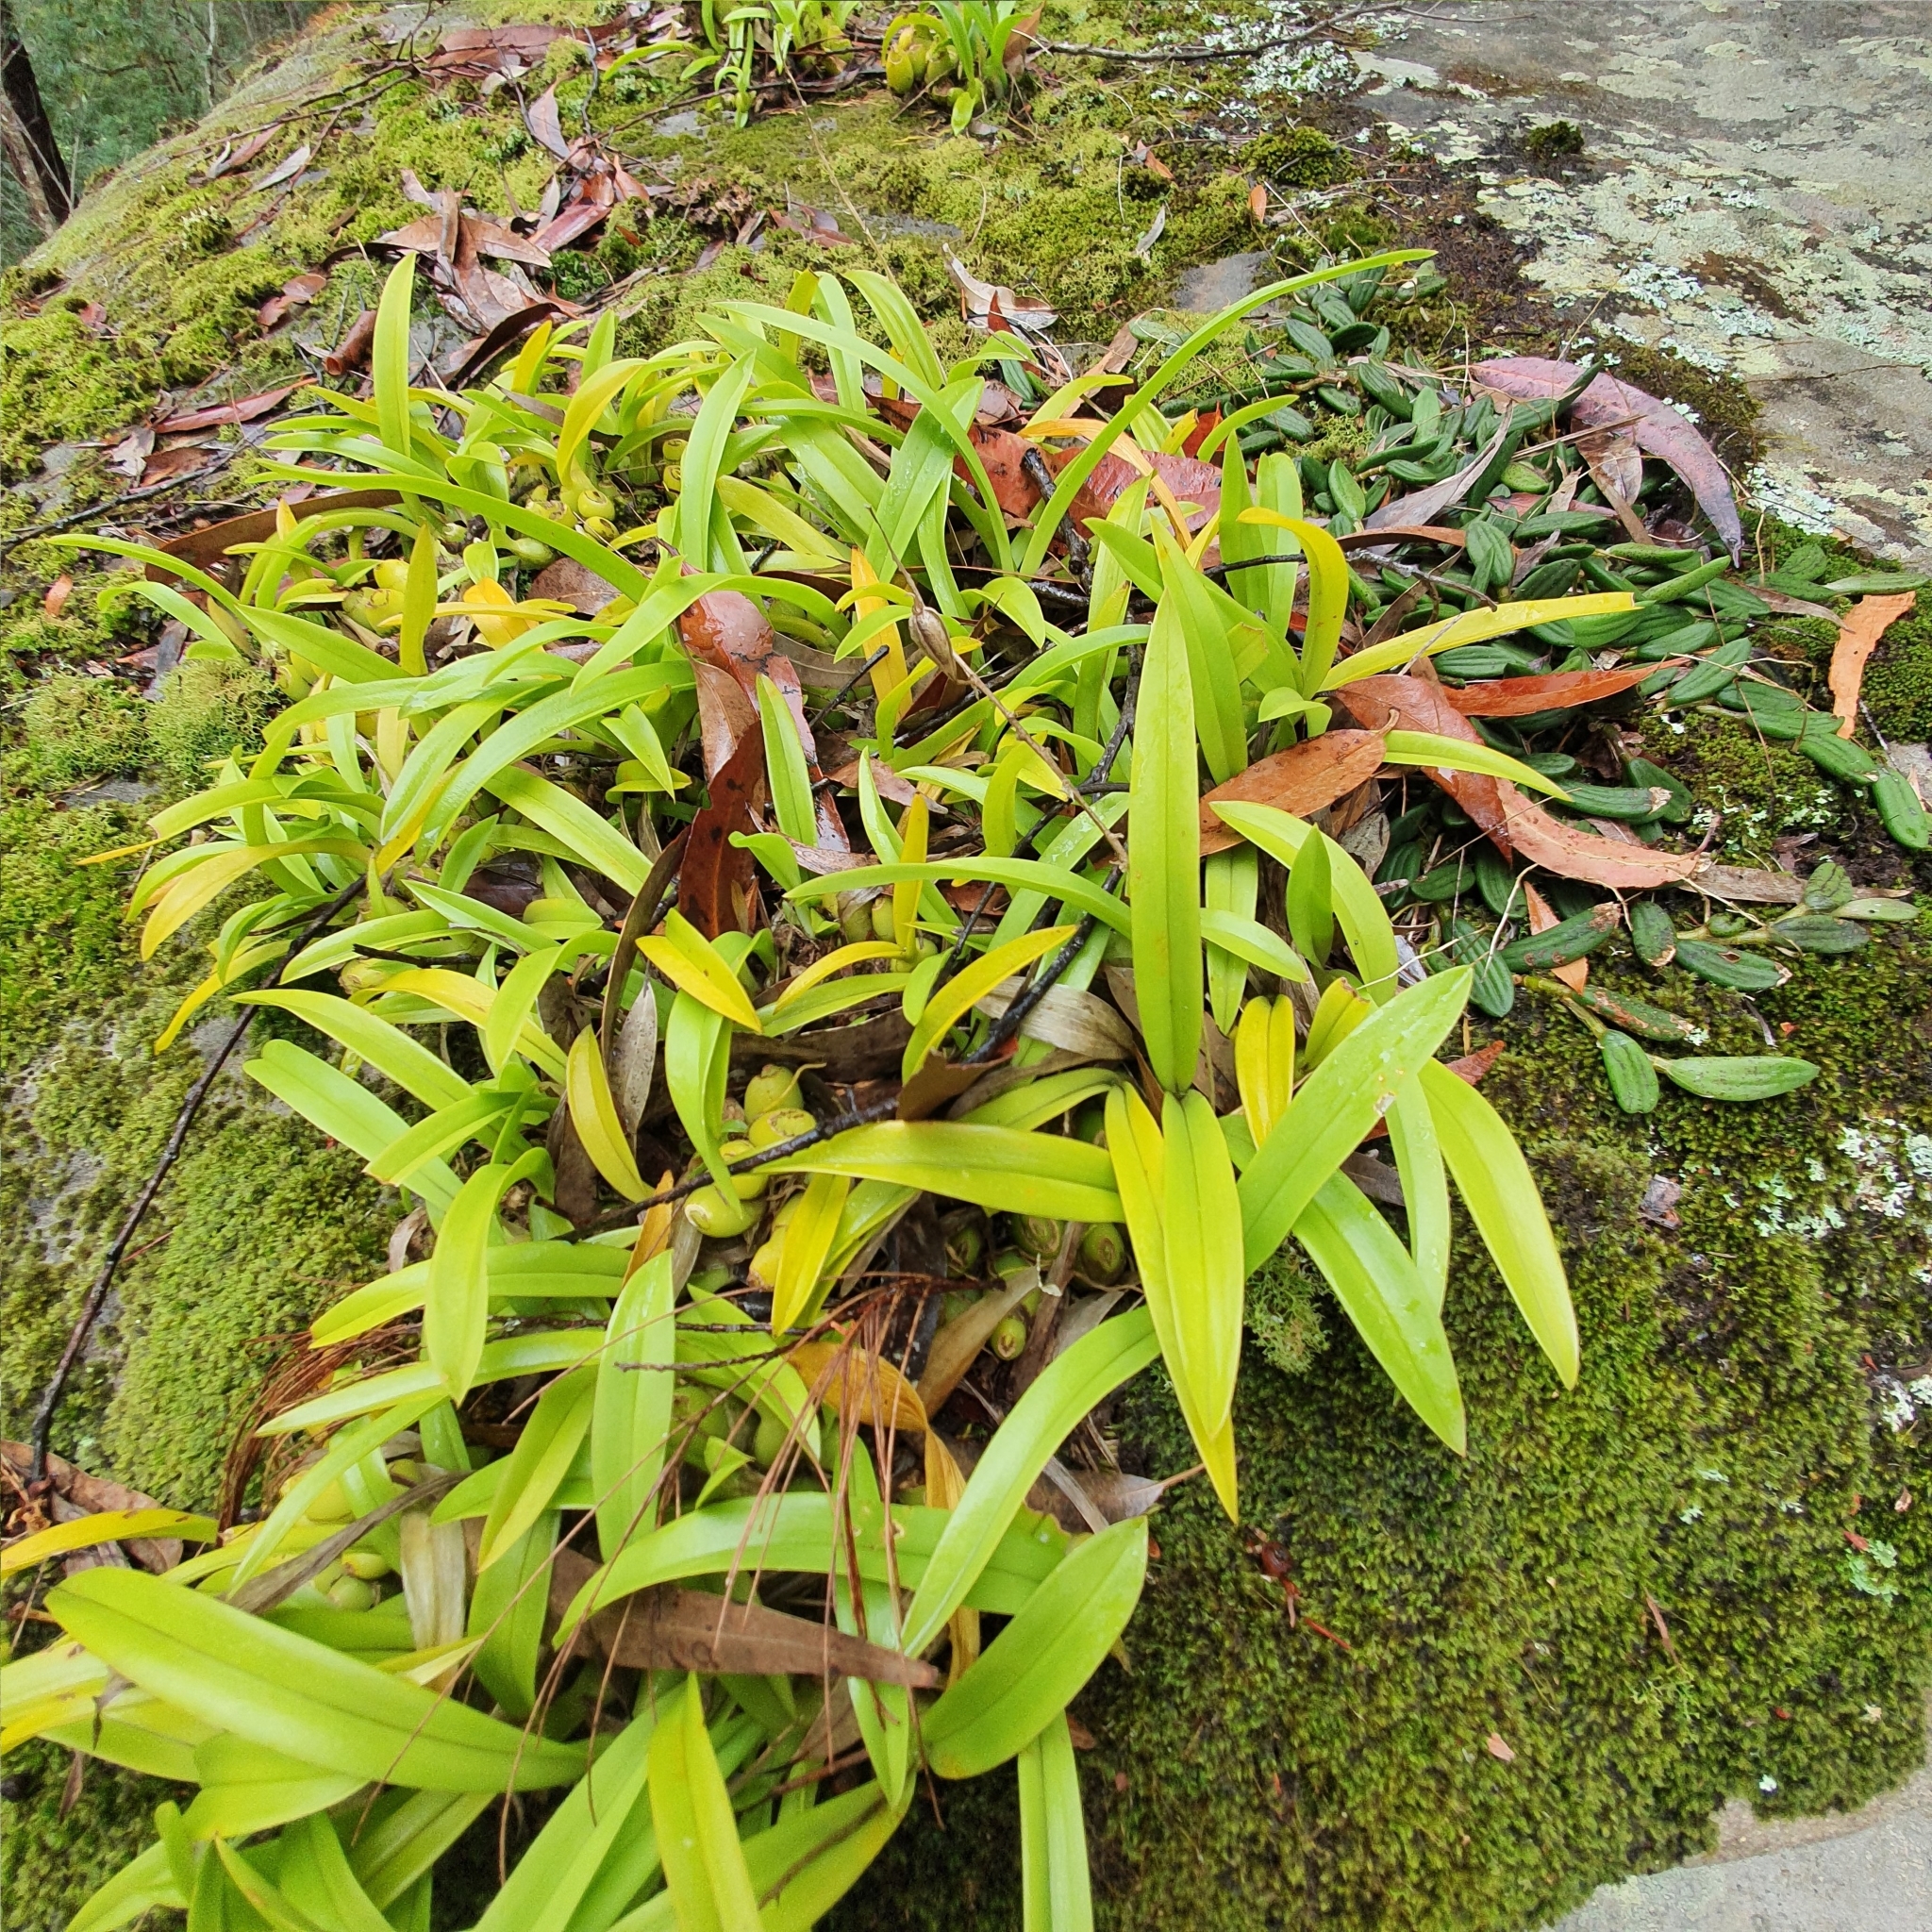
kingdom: Plantae
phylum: Tracheophyta
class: Liliopsida
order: Asparagales
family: Orchidaceae
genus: Liparis
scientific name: Liparis reflexa
